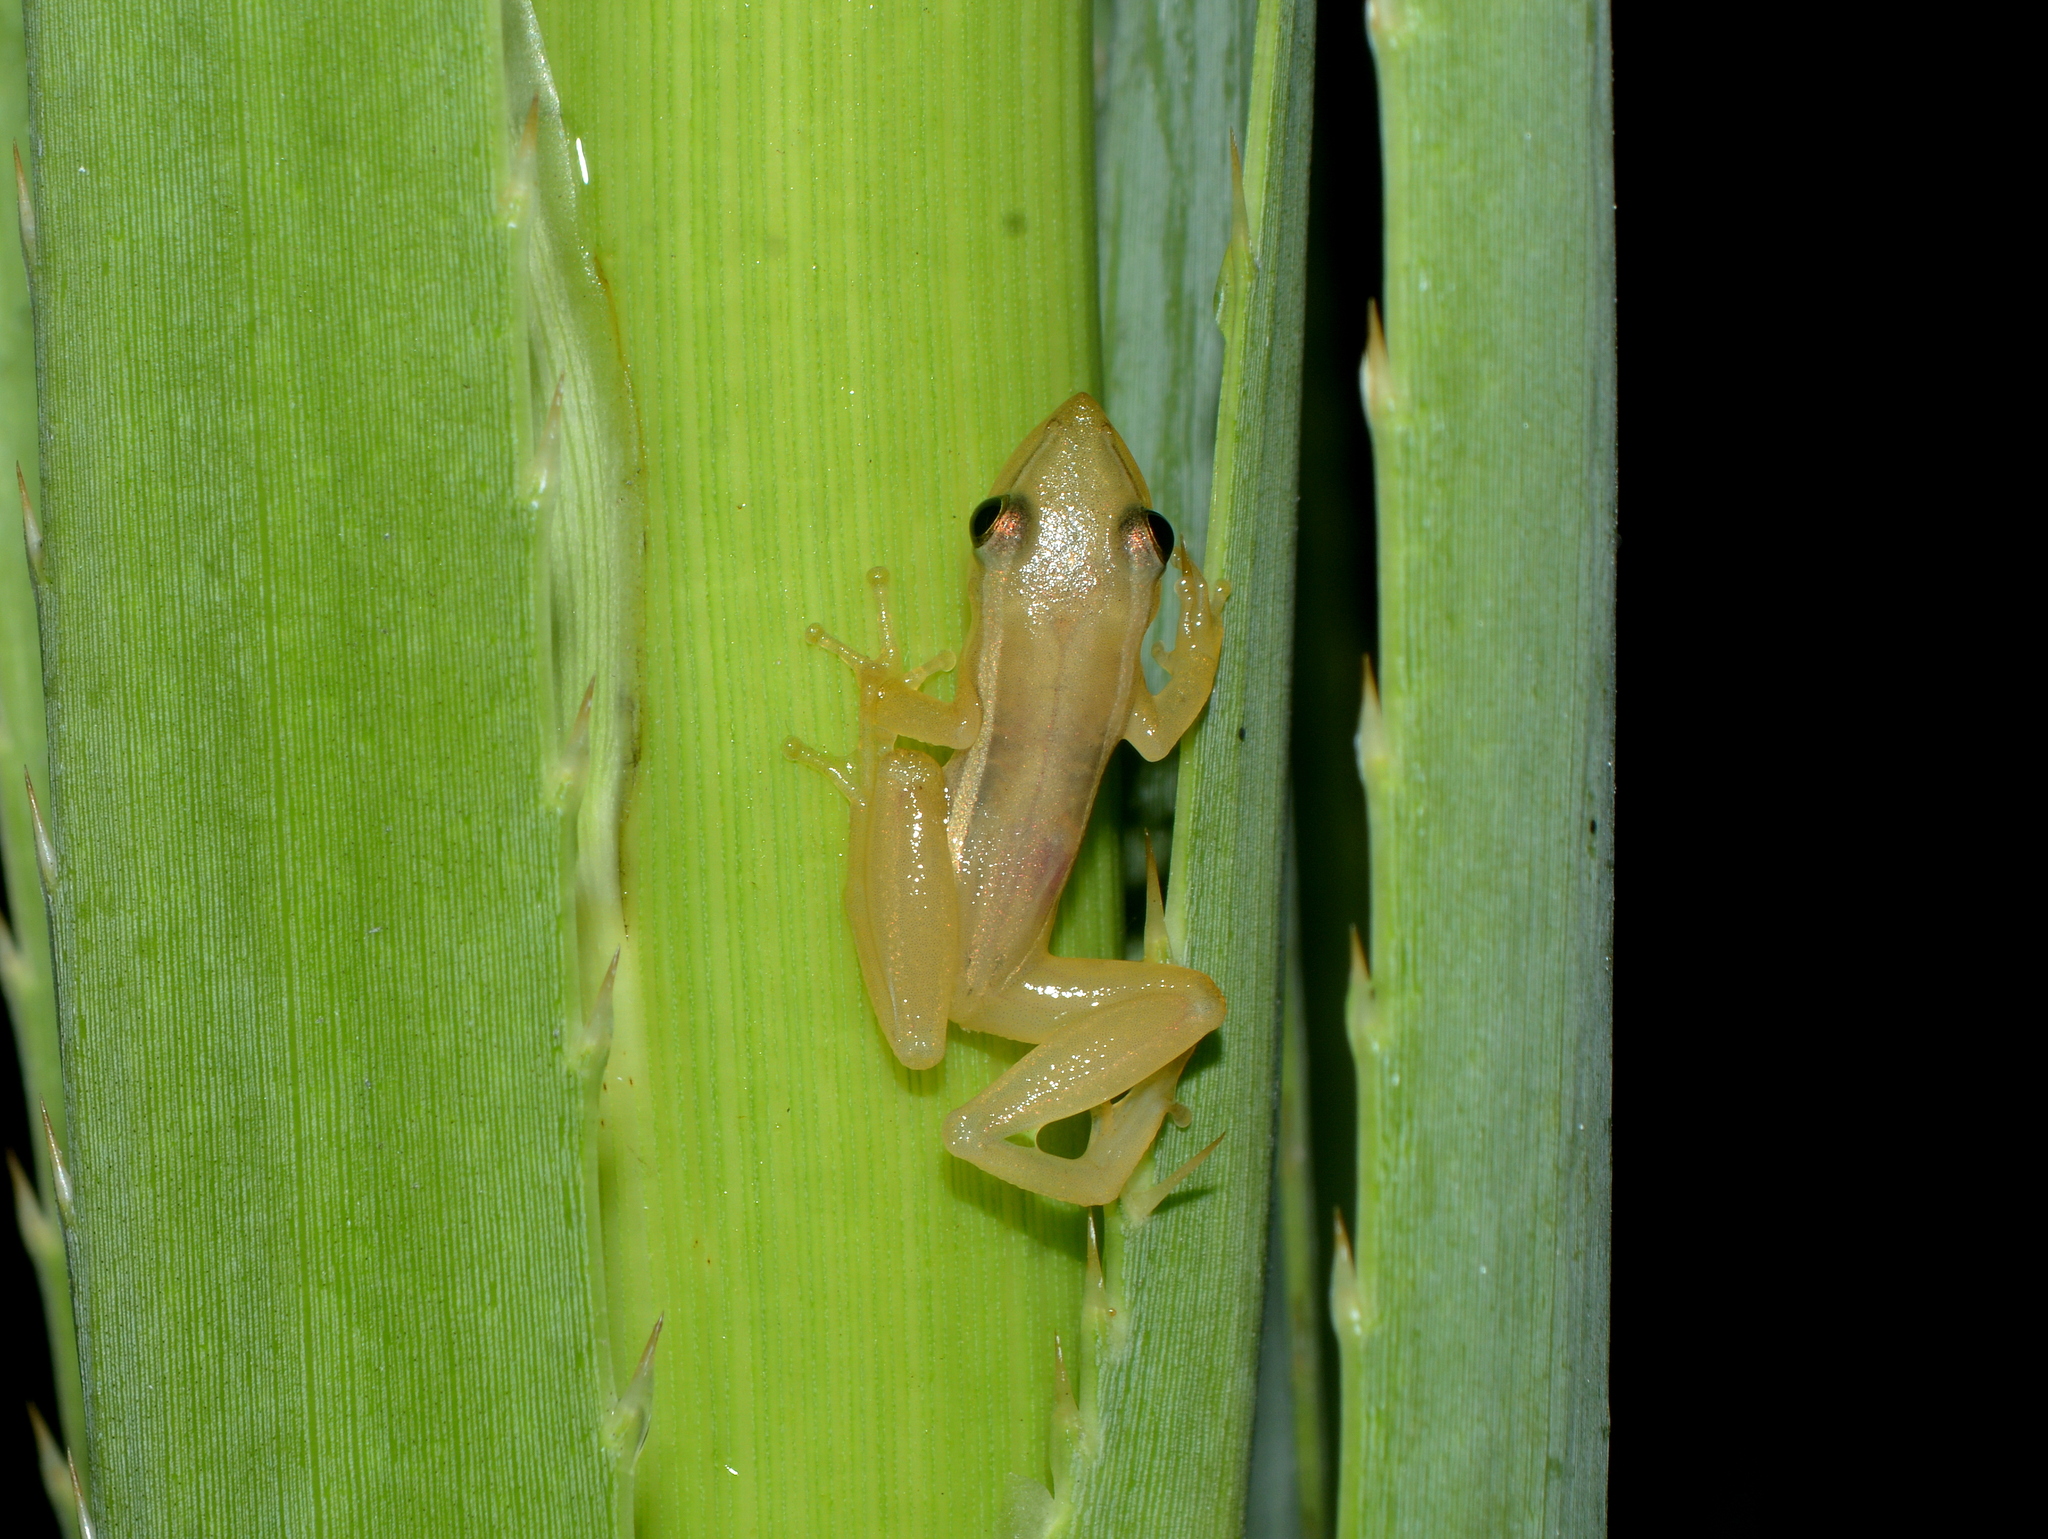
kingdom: Animalia
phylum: Chordata
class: Amphibia
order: Anura
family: Hylidae
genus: Scinax
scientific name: Scinax squalirostris
